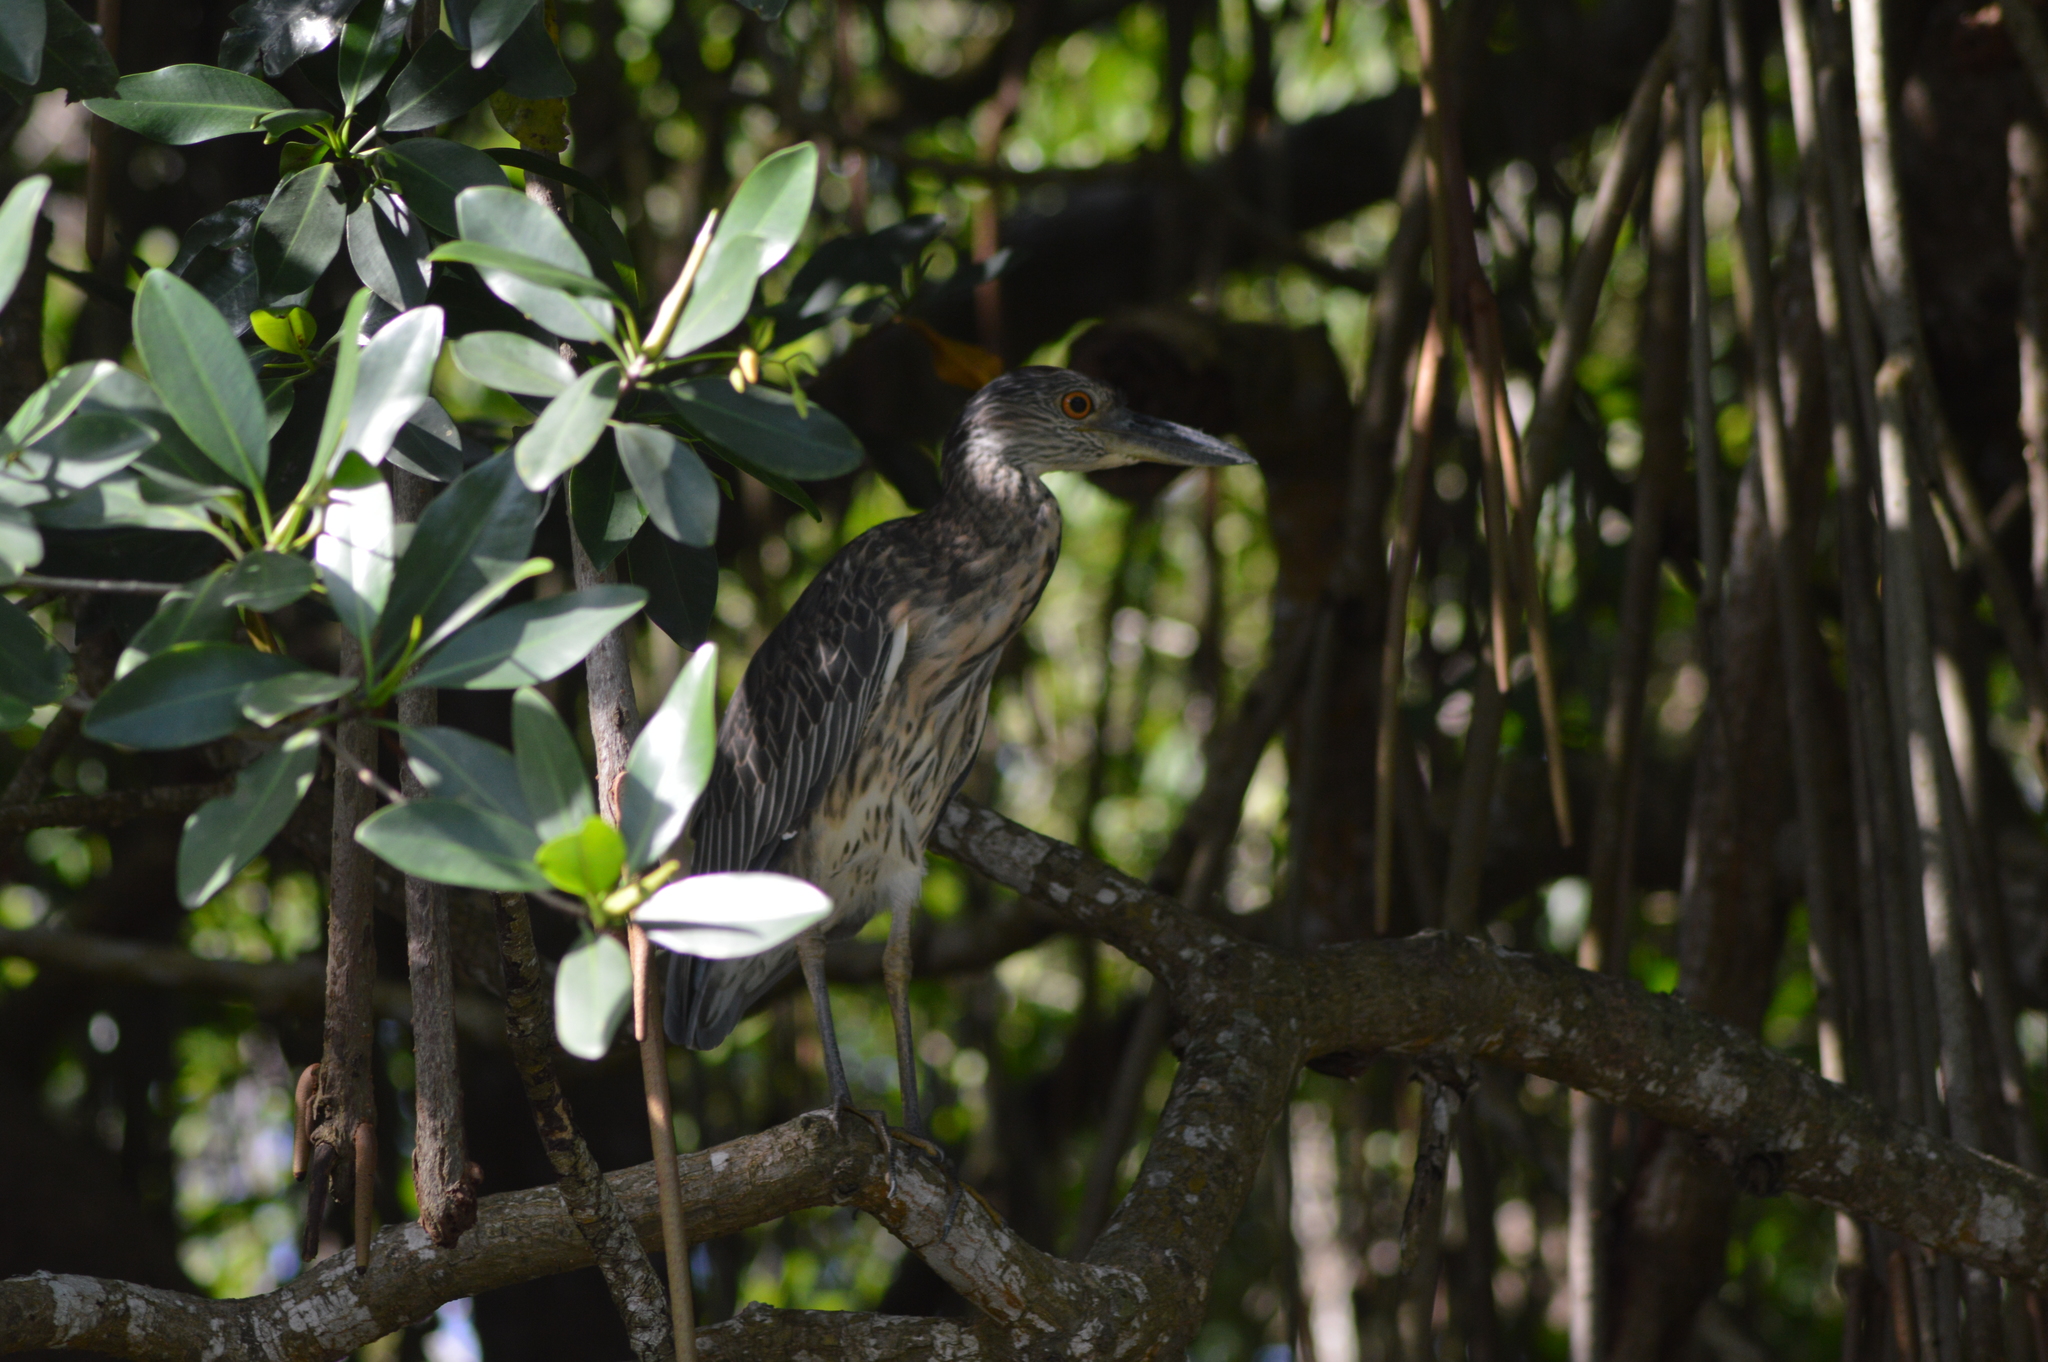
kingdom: Animalia
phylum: Chordata
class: Aves
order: Pelecaniformes
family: Ardeidae
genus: Nyctanassa
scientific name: Nyctanassa violacea
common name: Yellow-crowned night heron
